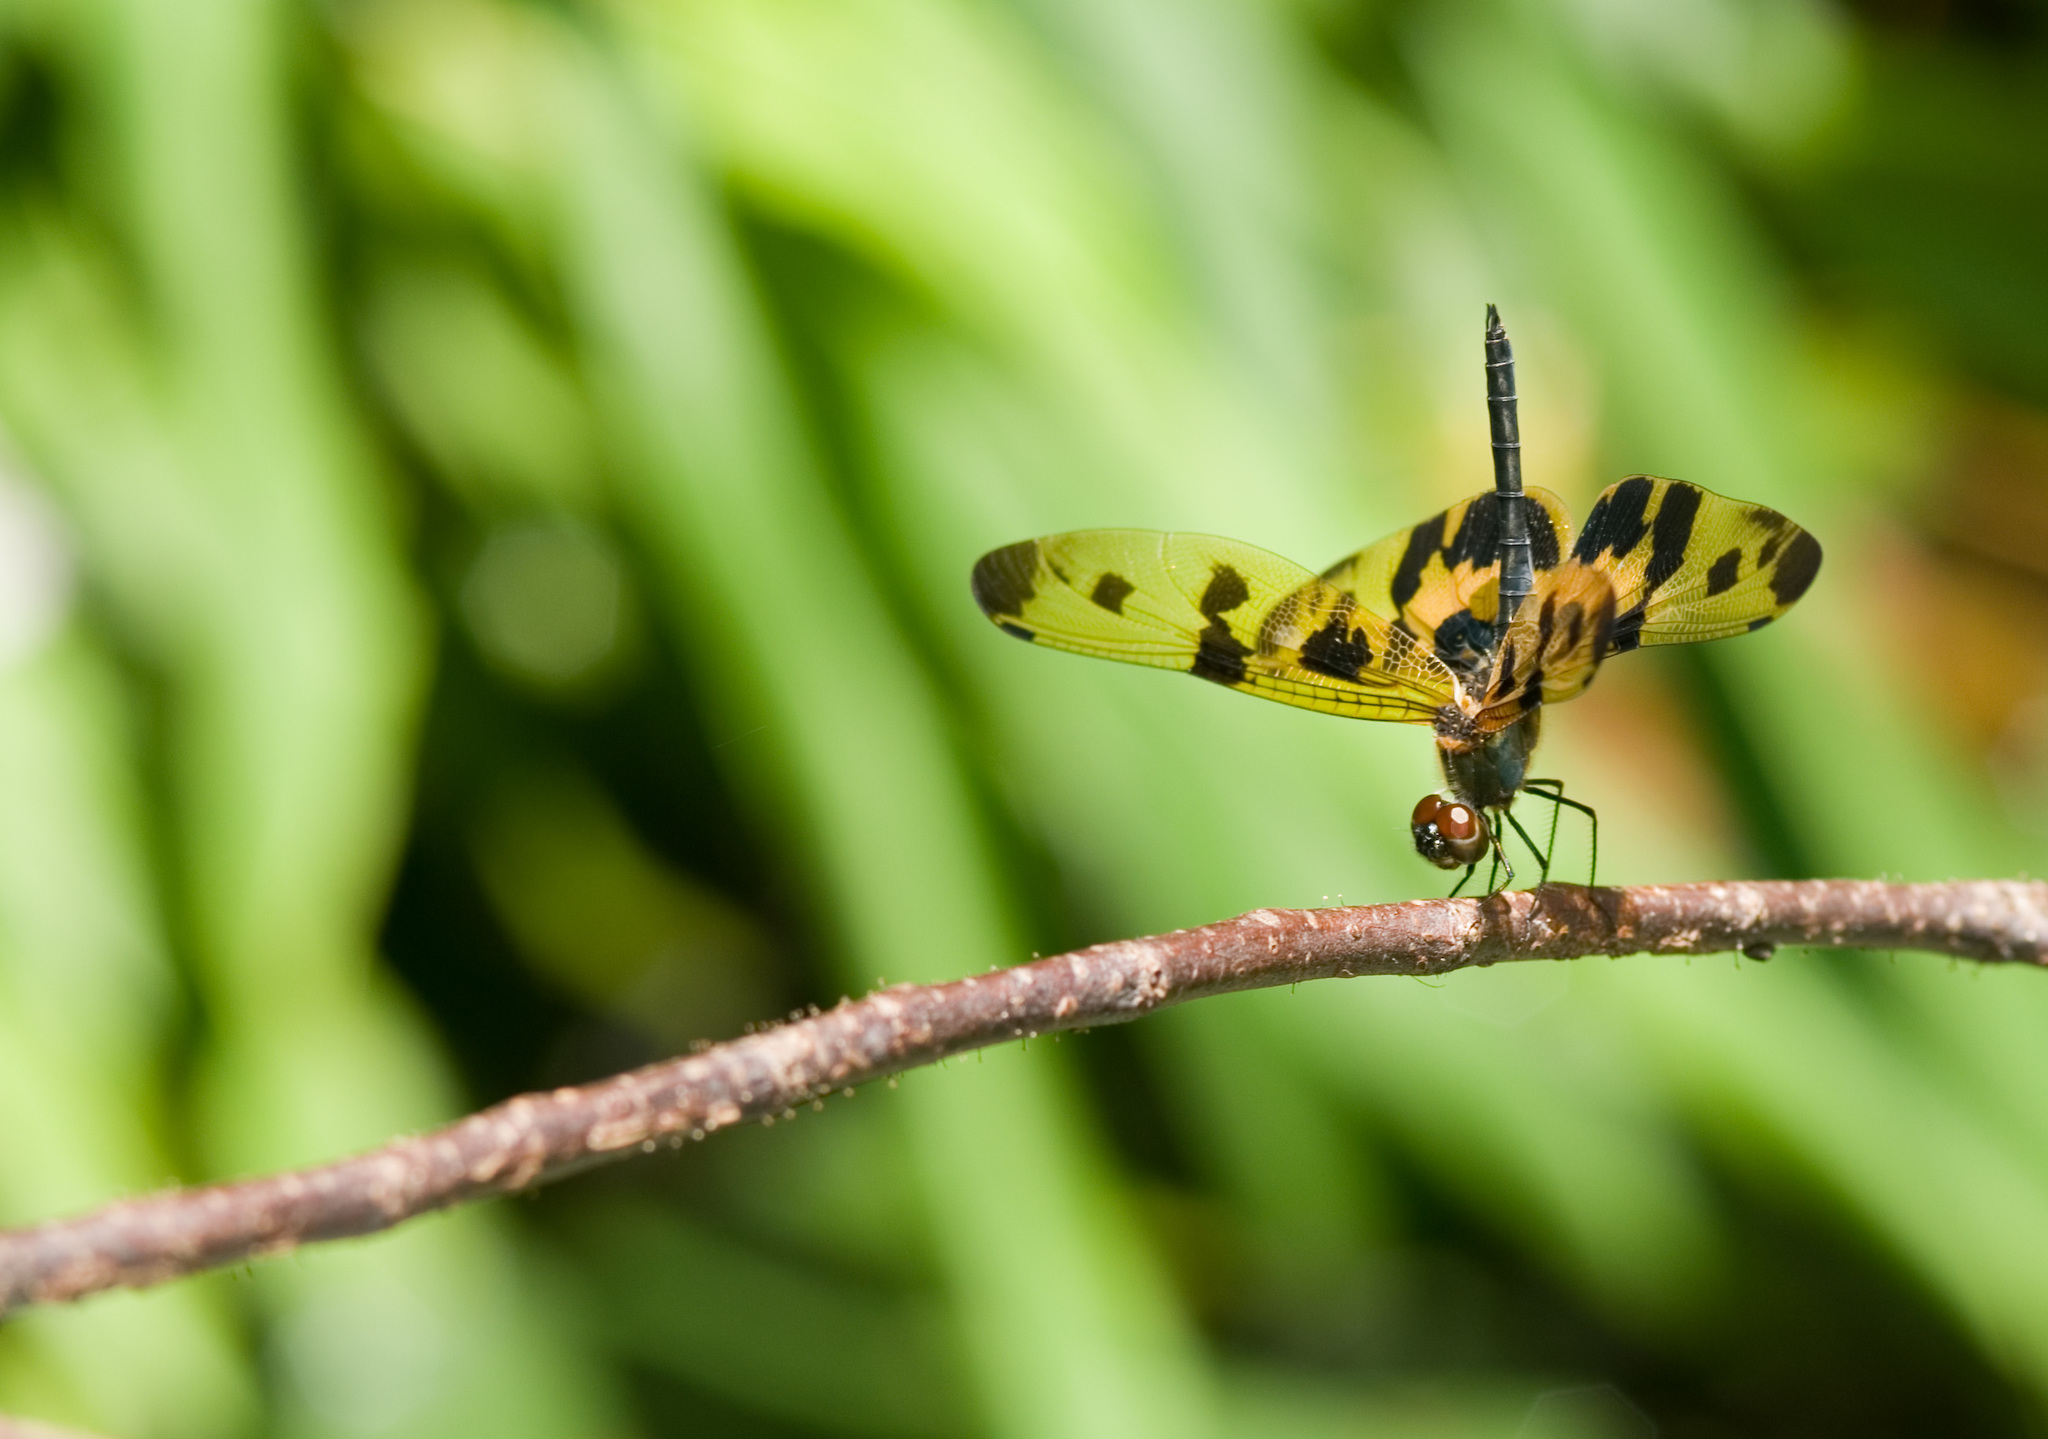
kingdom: Animalia
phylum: Arthropoda
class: Insecta
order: Odonata
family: Libellulidae
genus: Rhyothemis
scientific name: Rhyothemis variegata
